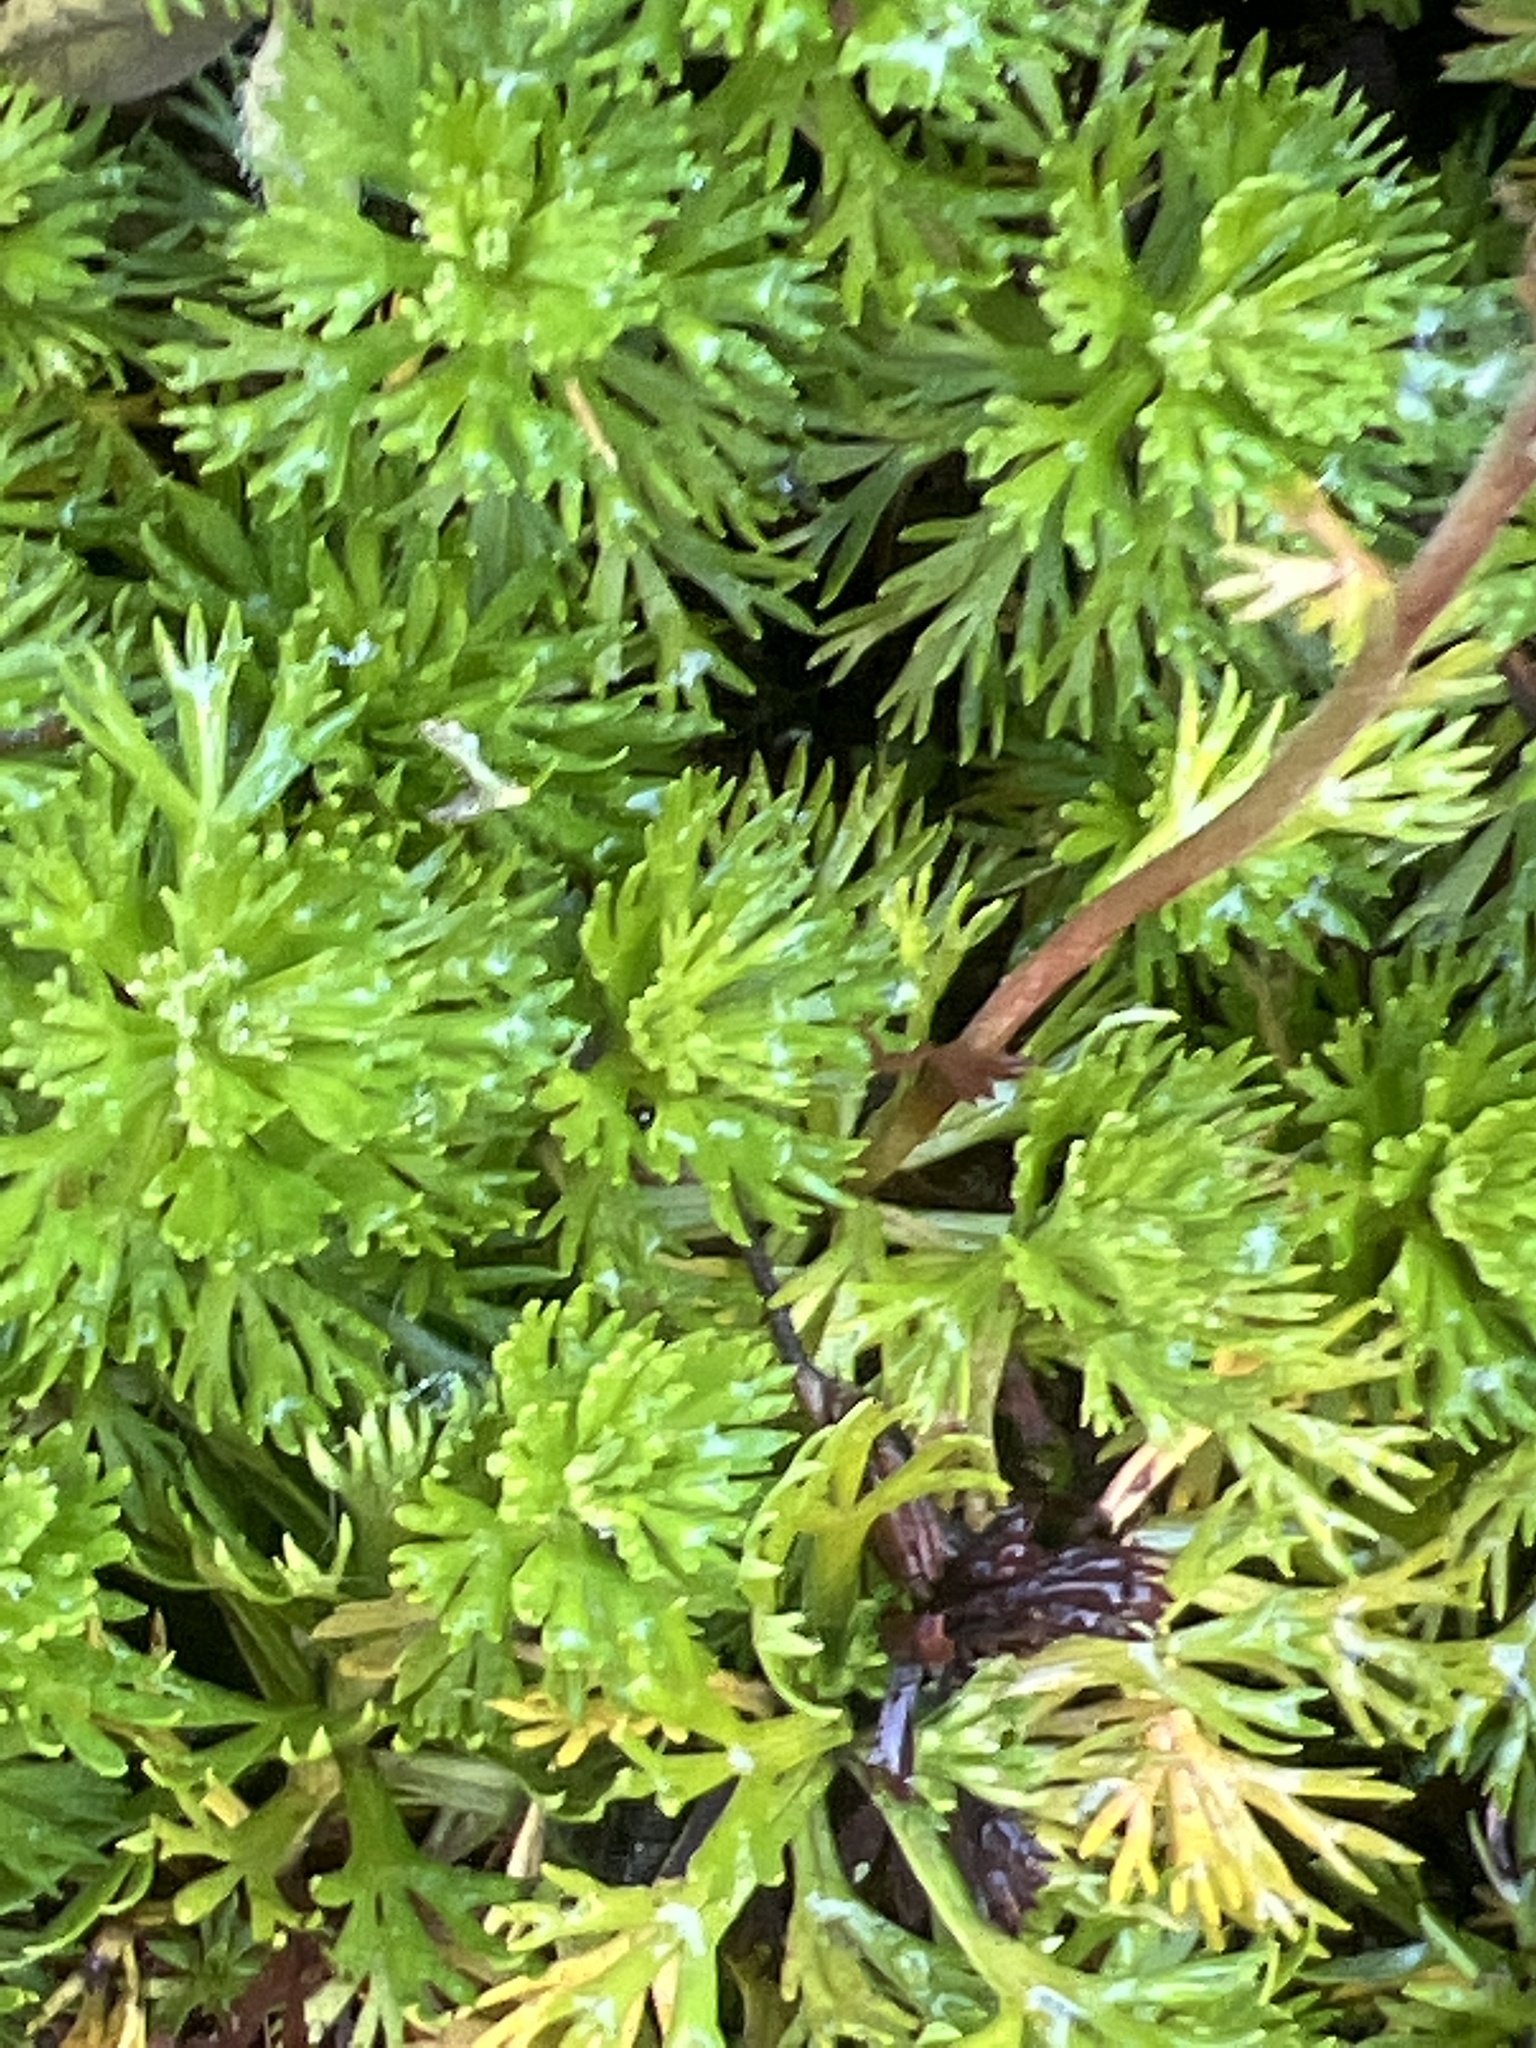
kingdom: Plantae
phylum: Tracheophyta
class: Magnoliopsida
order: Rosales
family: Rosaceae
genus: Luetkea
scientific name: Luetkea pectinata
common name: Partridgefoot
